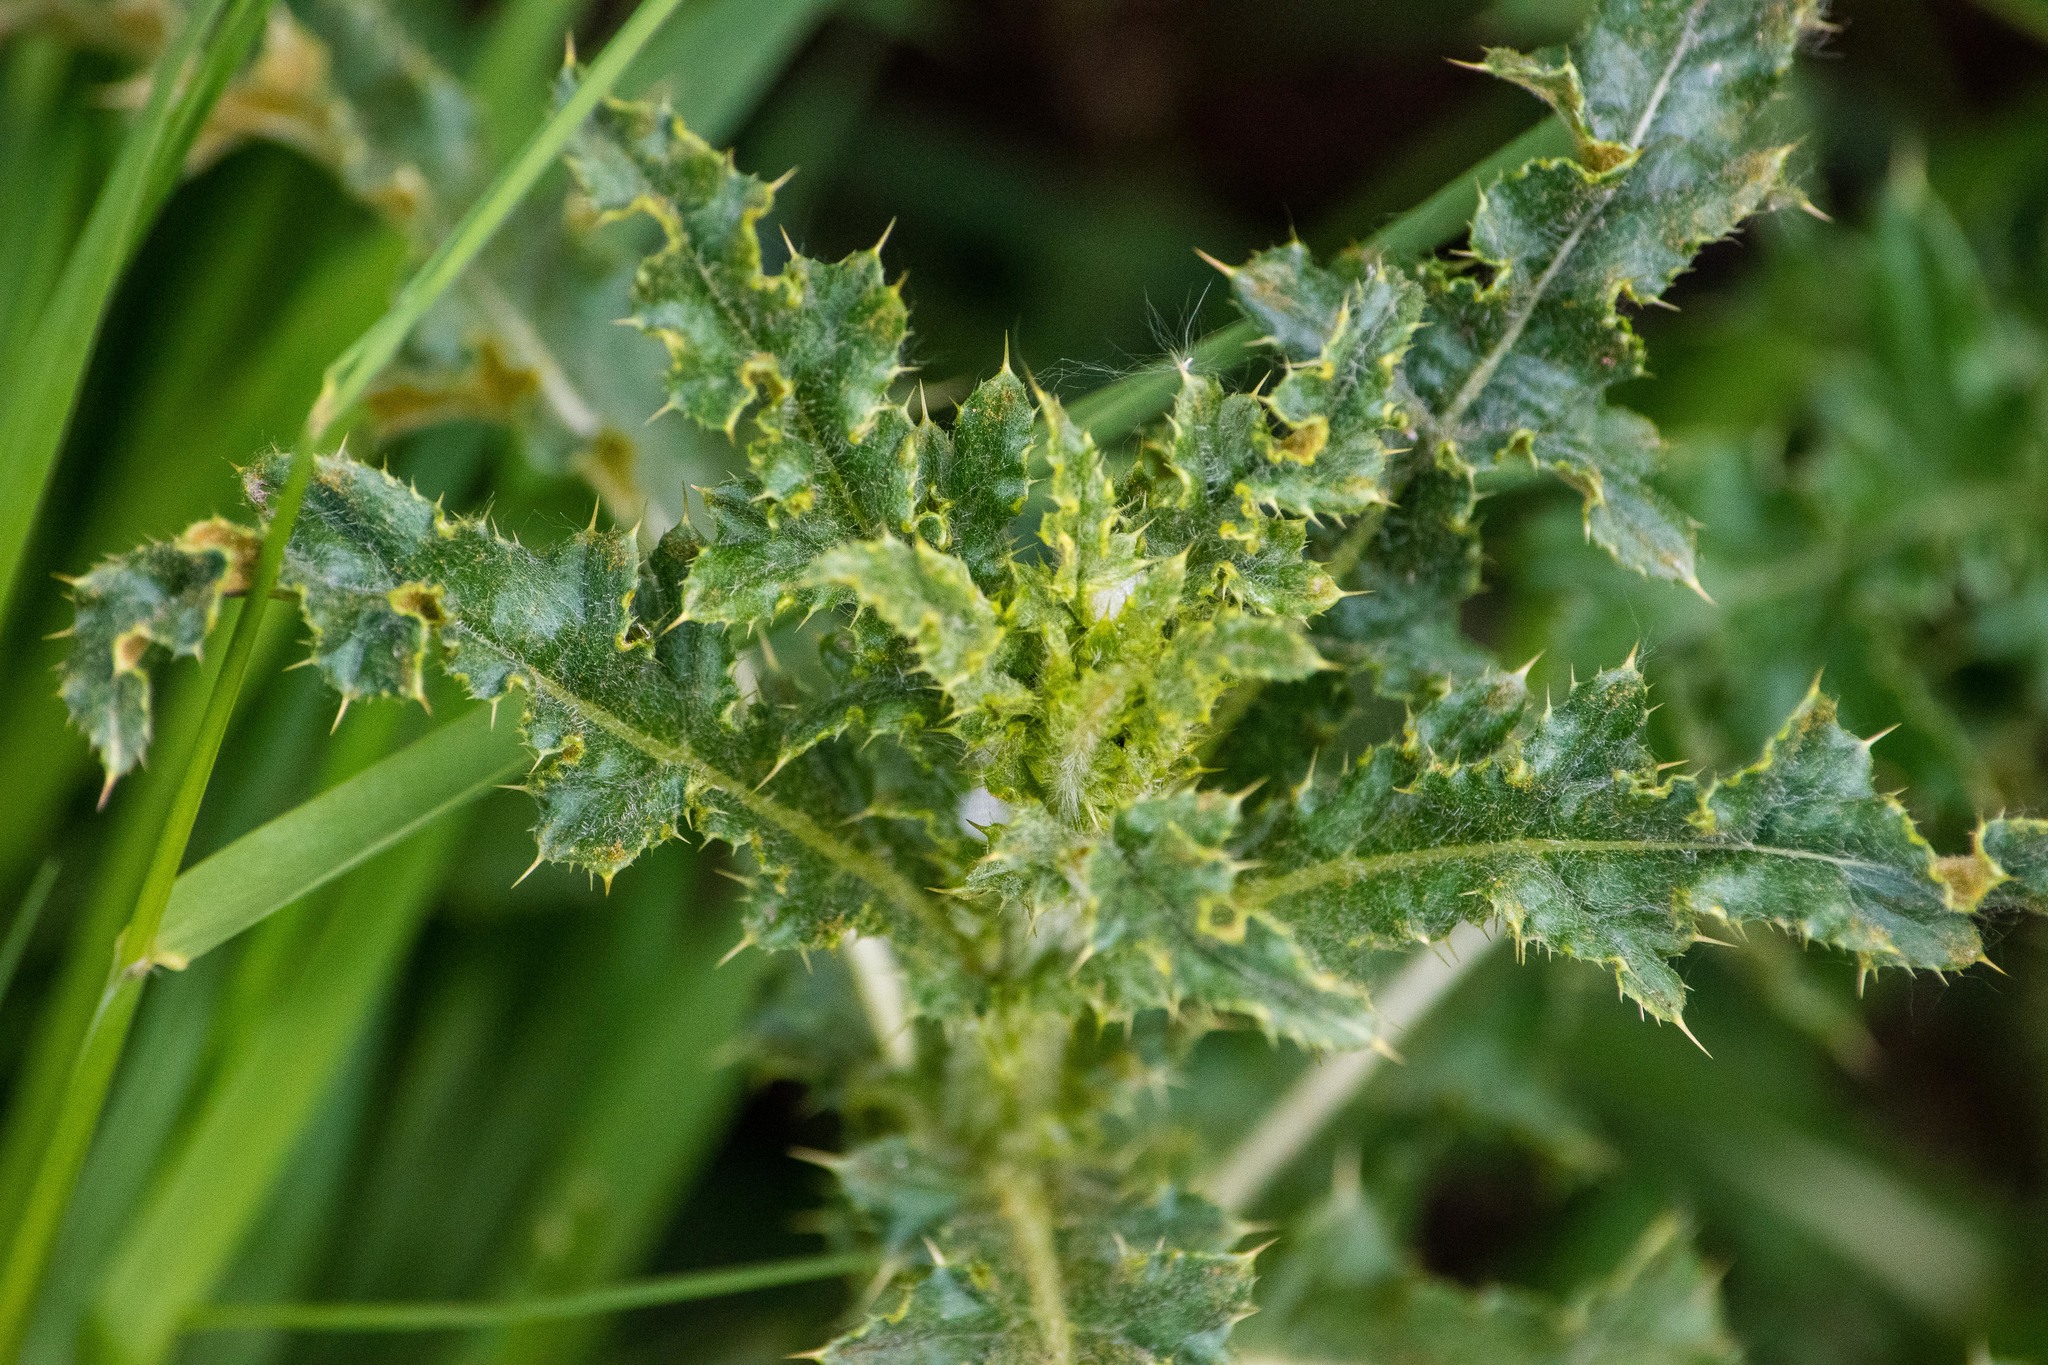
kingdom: Plantae
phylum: Tracheophyta
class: Magnoliopsida
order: Asterales
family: Asteraceae
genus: Cirsium
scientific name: Cirsium arvense
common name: Creeping thistle
